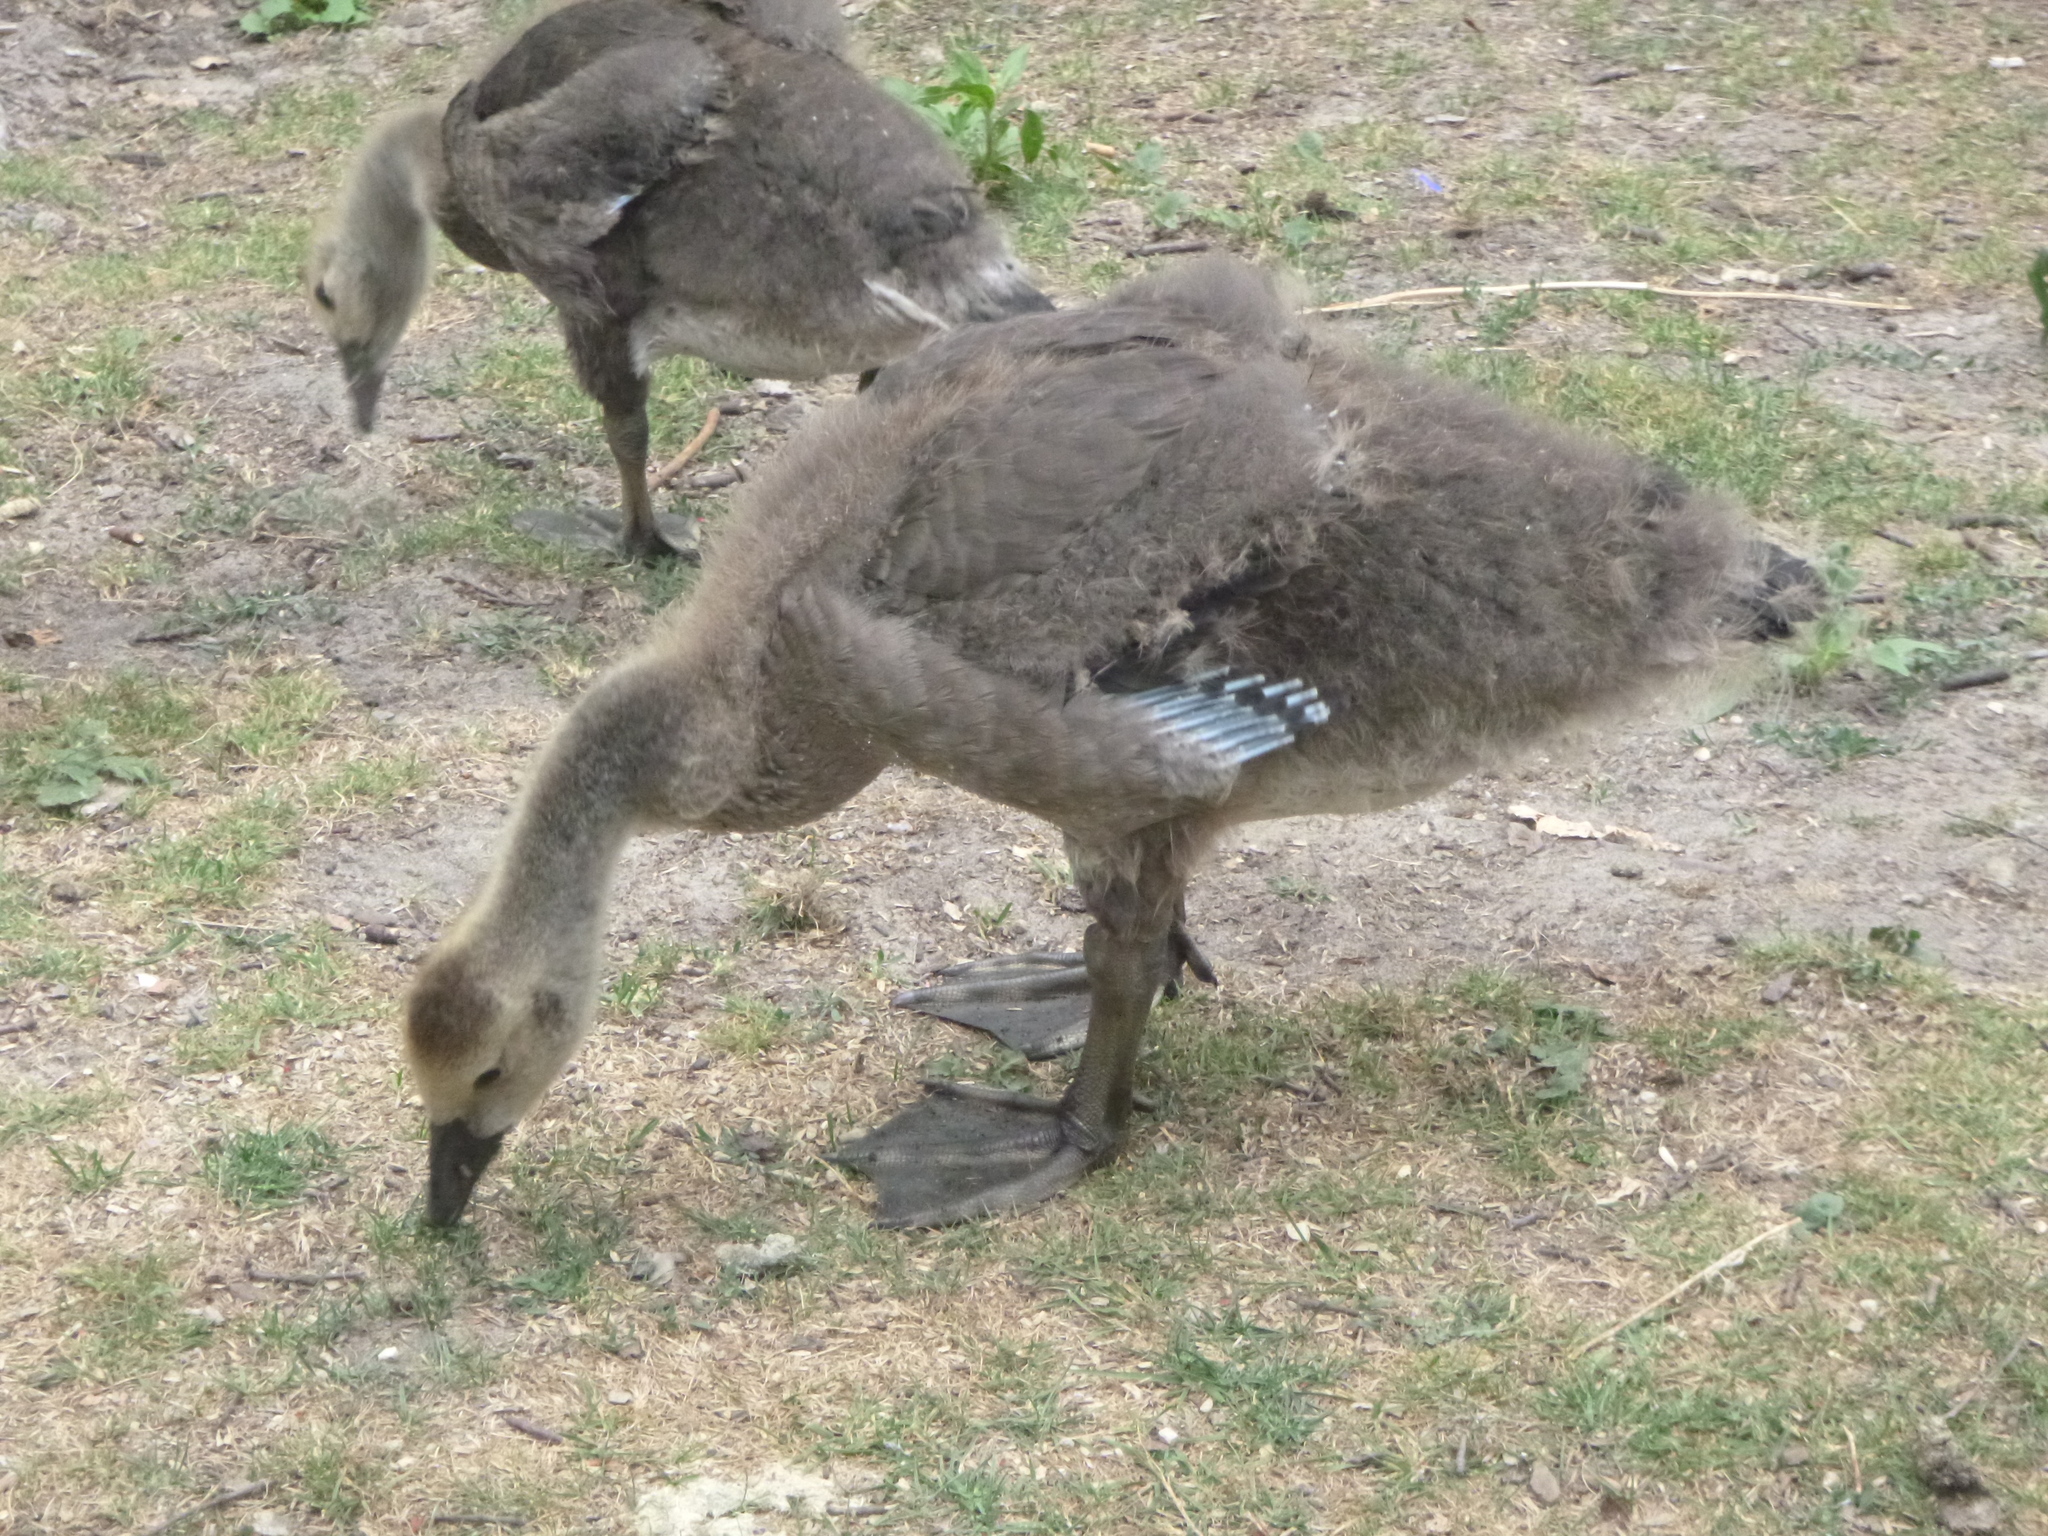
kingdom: Animalia
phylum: Chordata
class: Aves
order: Anseriformes
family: Anatidae
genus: Branta
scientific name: Branta canadensis
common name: Canada goose
